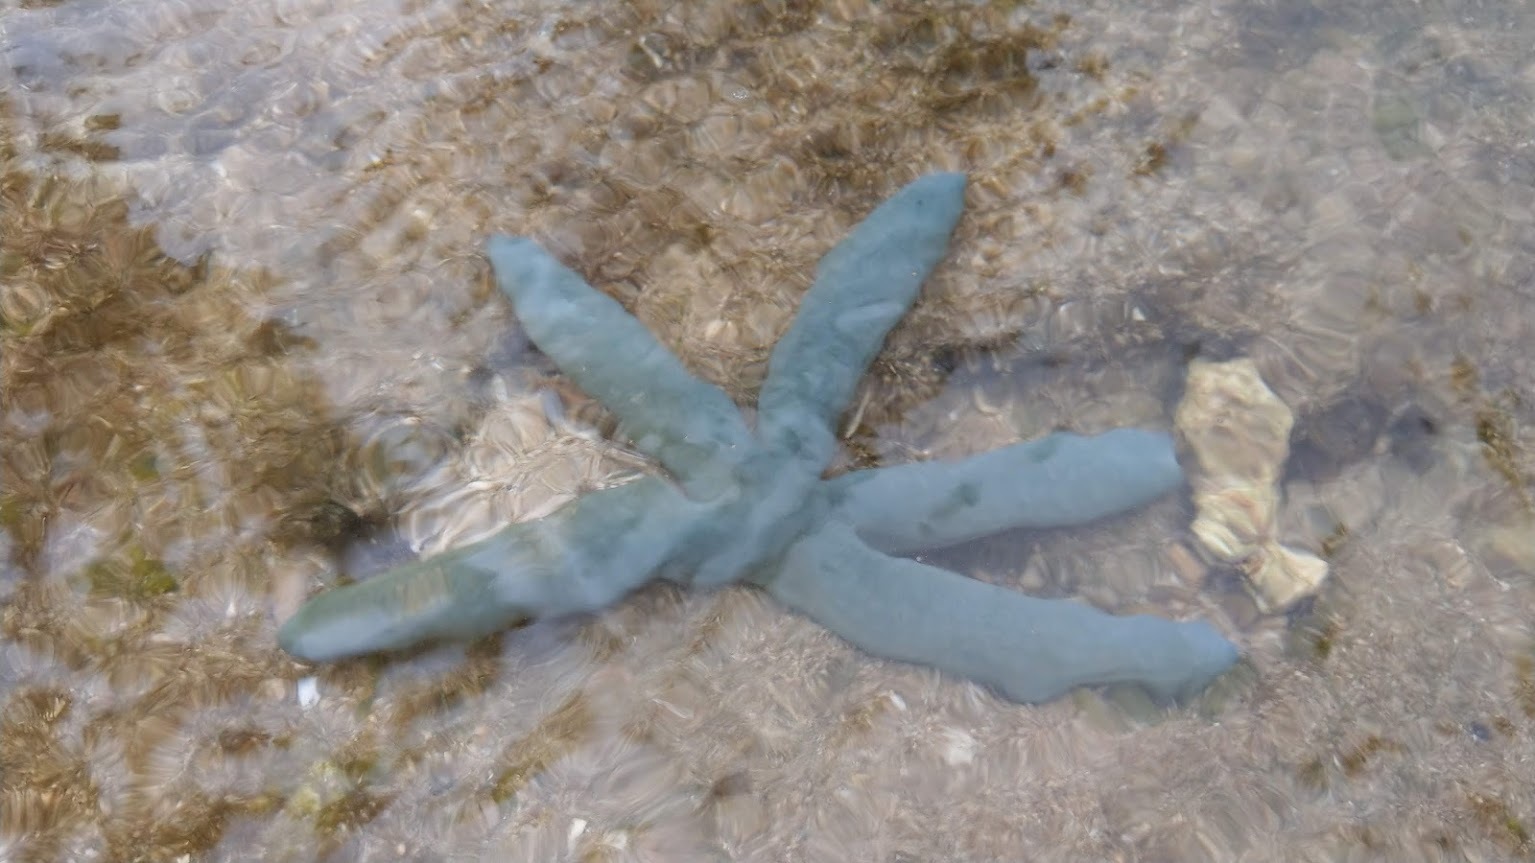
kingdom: Animalia
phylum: Echinodermata
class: Asteroidea
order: Valvatida
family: Ophidiasteridae
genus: Linckia
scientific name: Linckia laevigata
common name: Azure sea star
